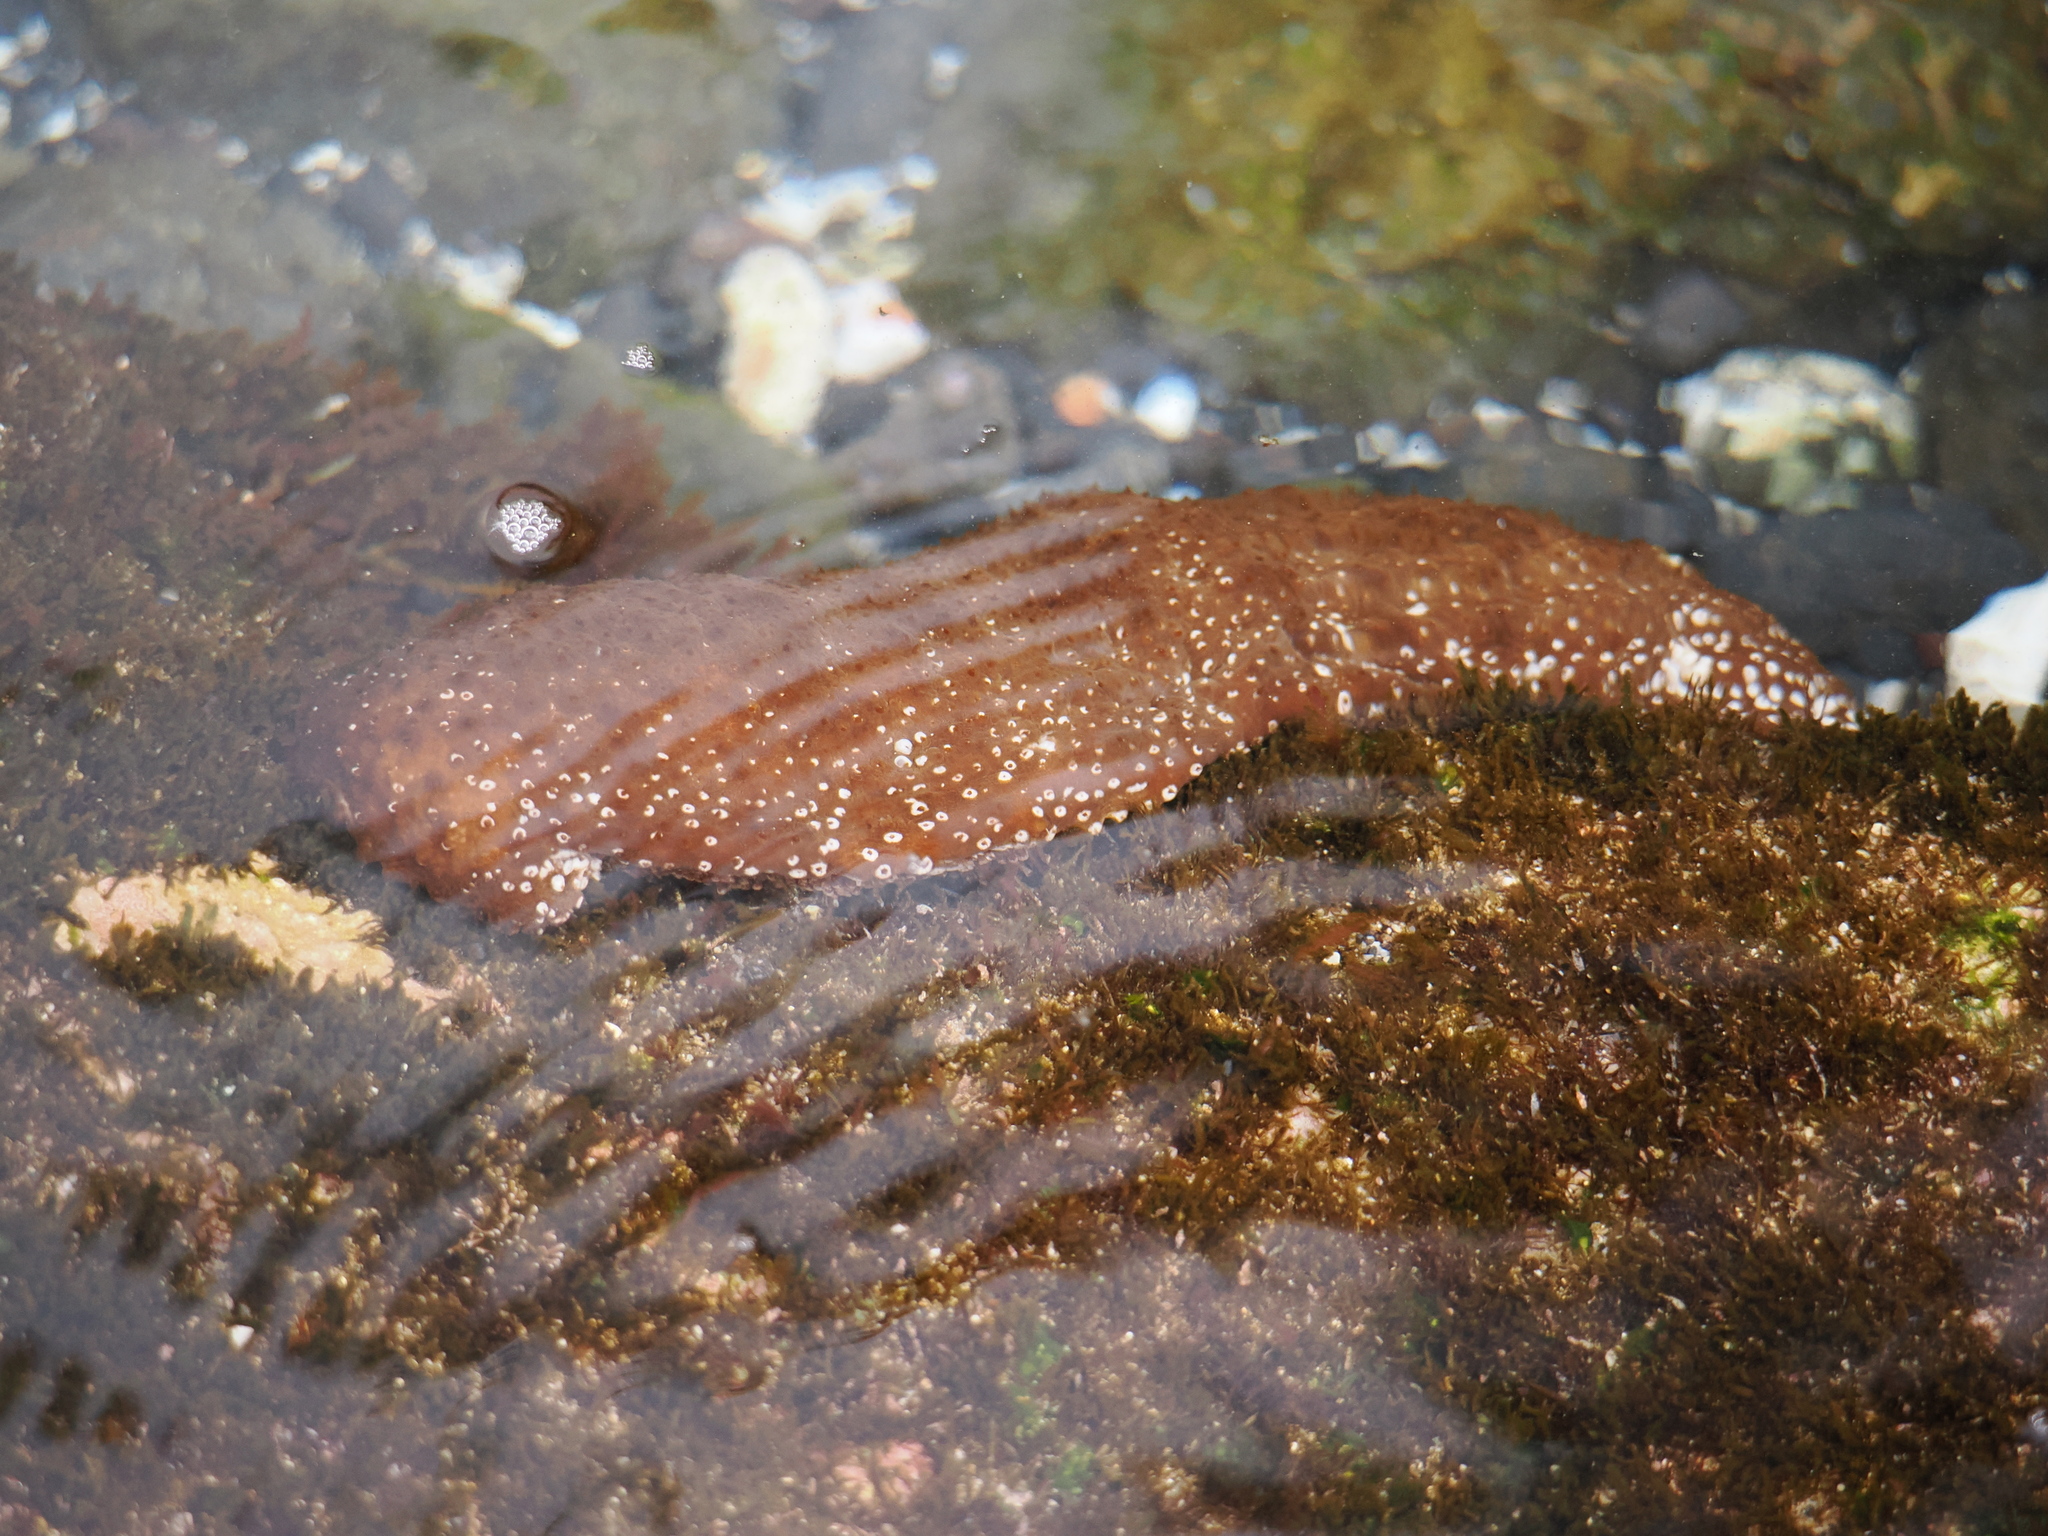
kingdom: Animalia
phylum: Echinodermata
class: Holothuroidea
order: Holothuriida
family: Holothuriidae
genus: Actinopyga
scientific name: Actinopyga varians
